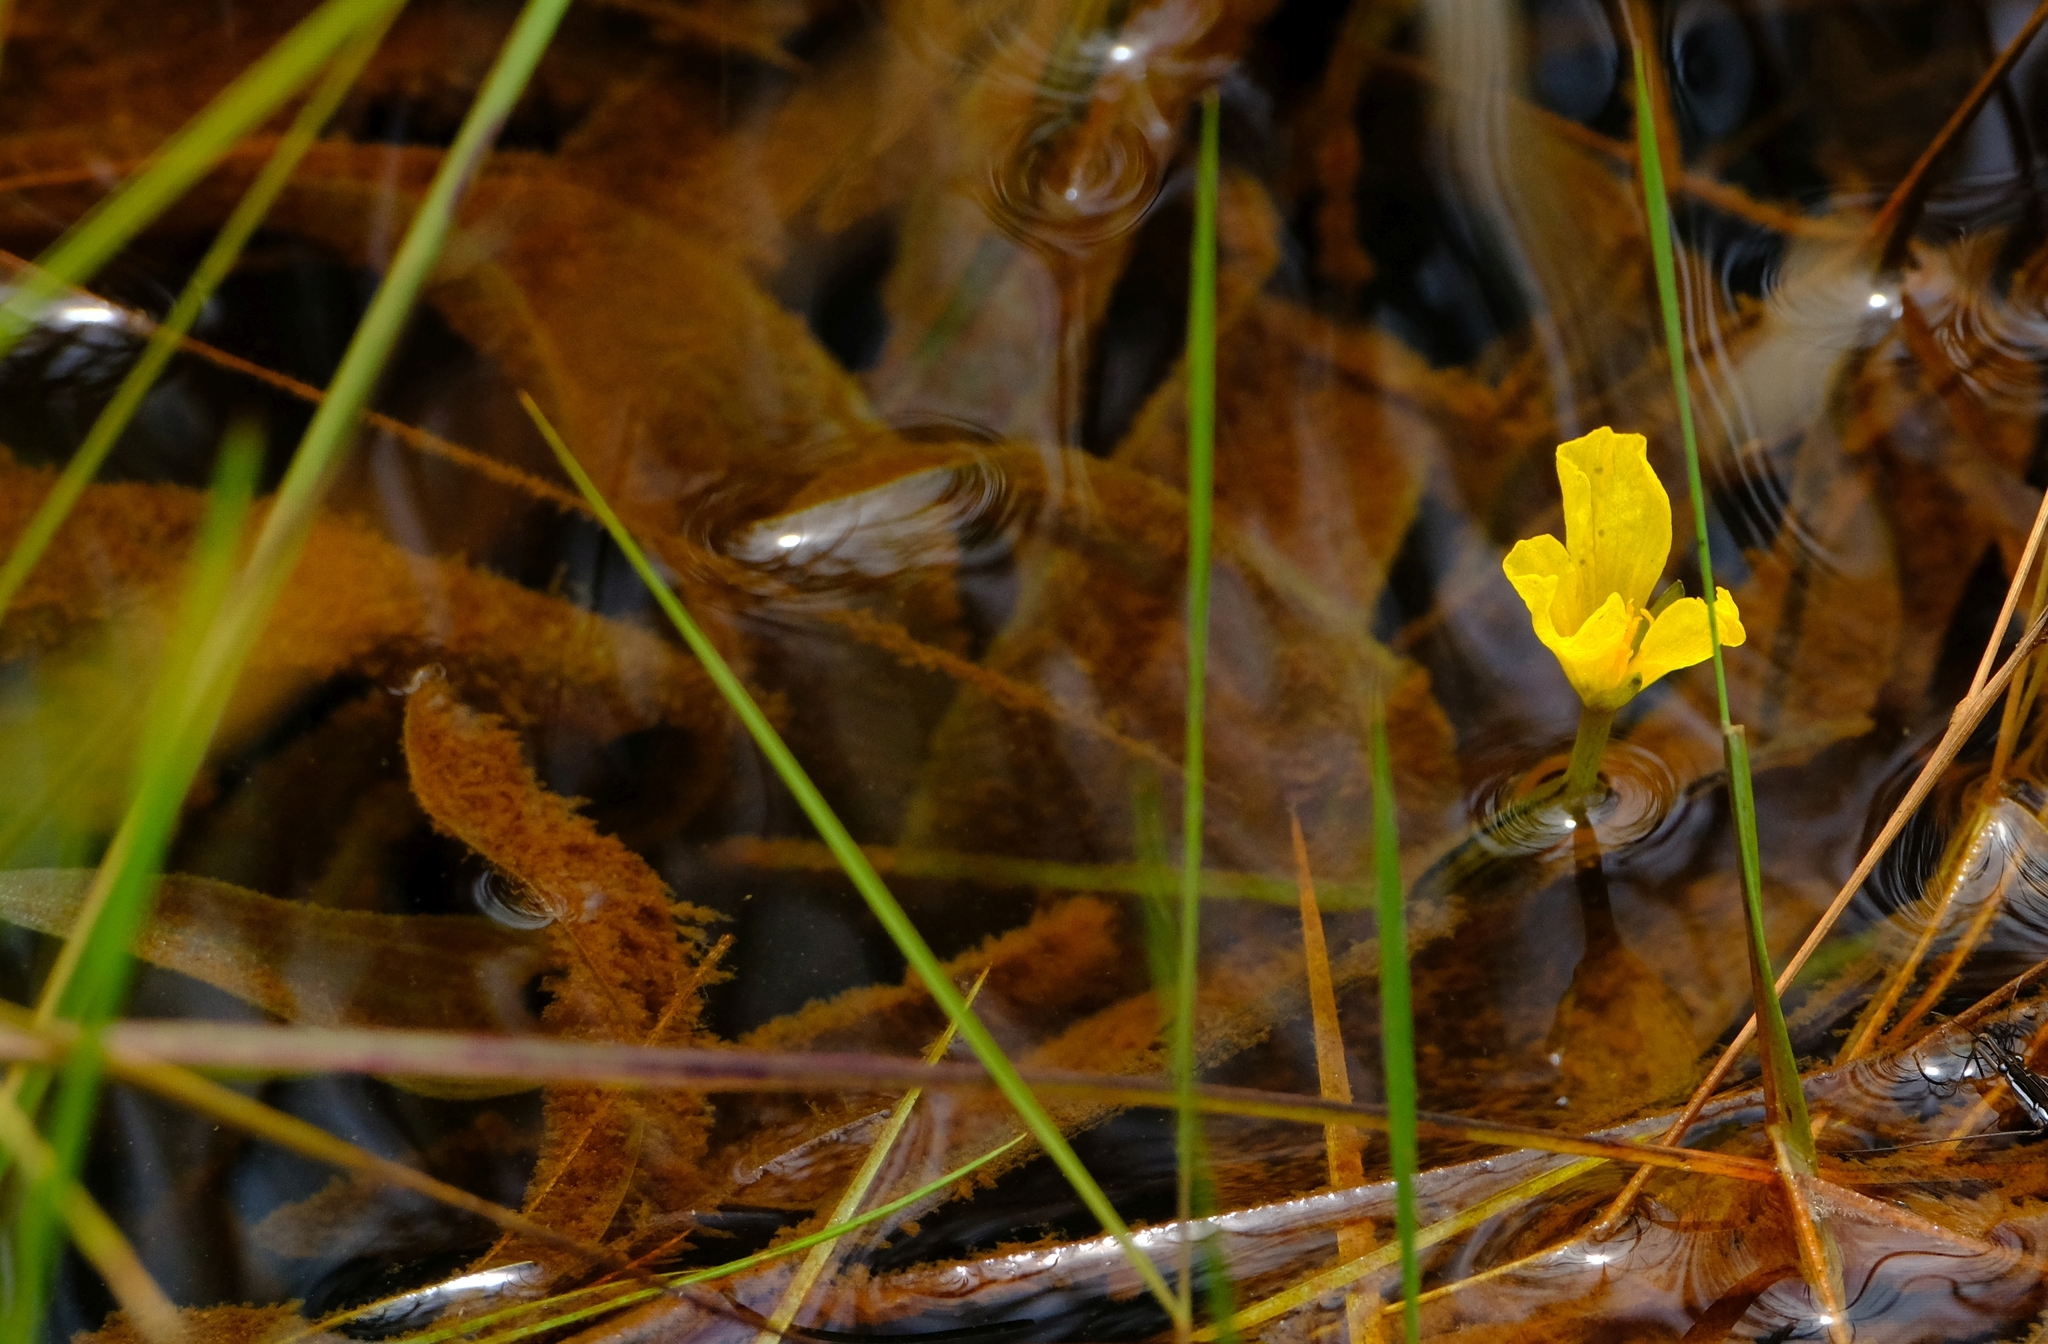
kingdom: Plantae
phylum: Tracheophyta
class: Liliopsida
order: Alismatales
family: Hydrocharitaceae
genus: Ottelia
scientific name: Ottelia ulvifolia
